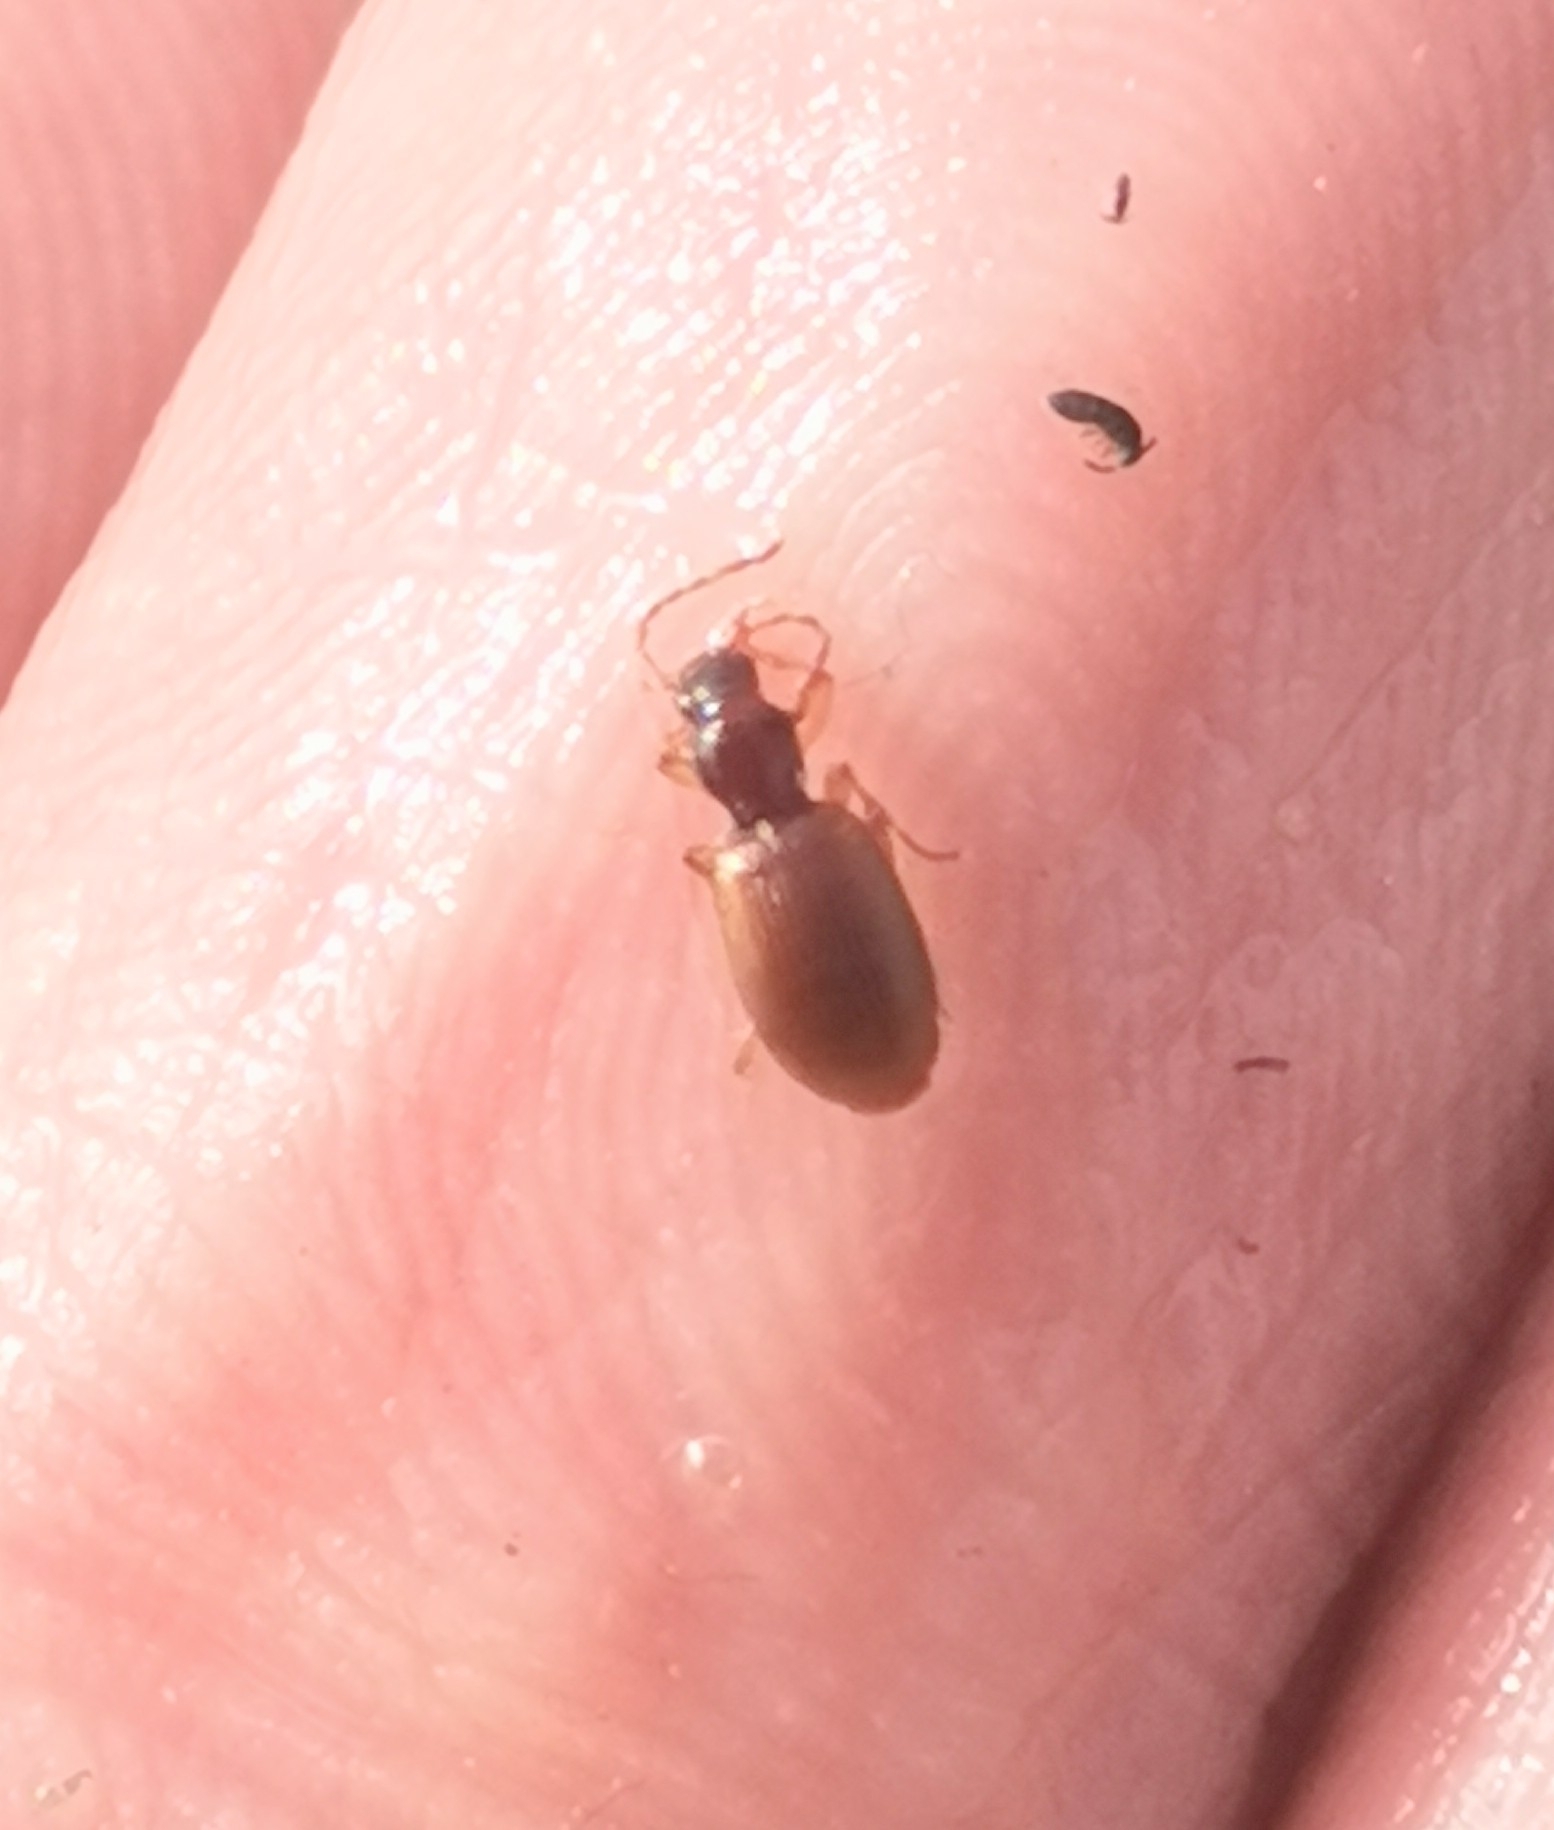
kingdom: Animalia
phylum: Arthropoda
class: Insecta
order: Coleoptera
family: Carabidae
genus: Oxypselaphus
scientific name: Oxypselaphus obscurus
